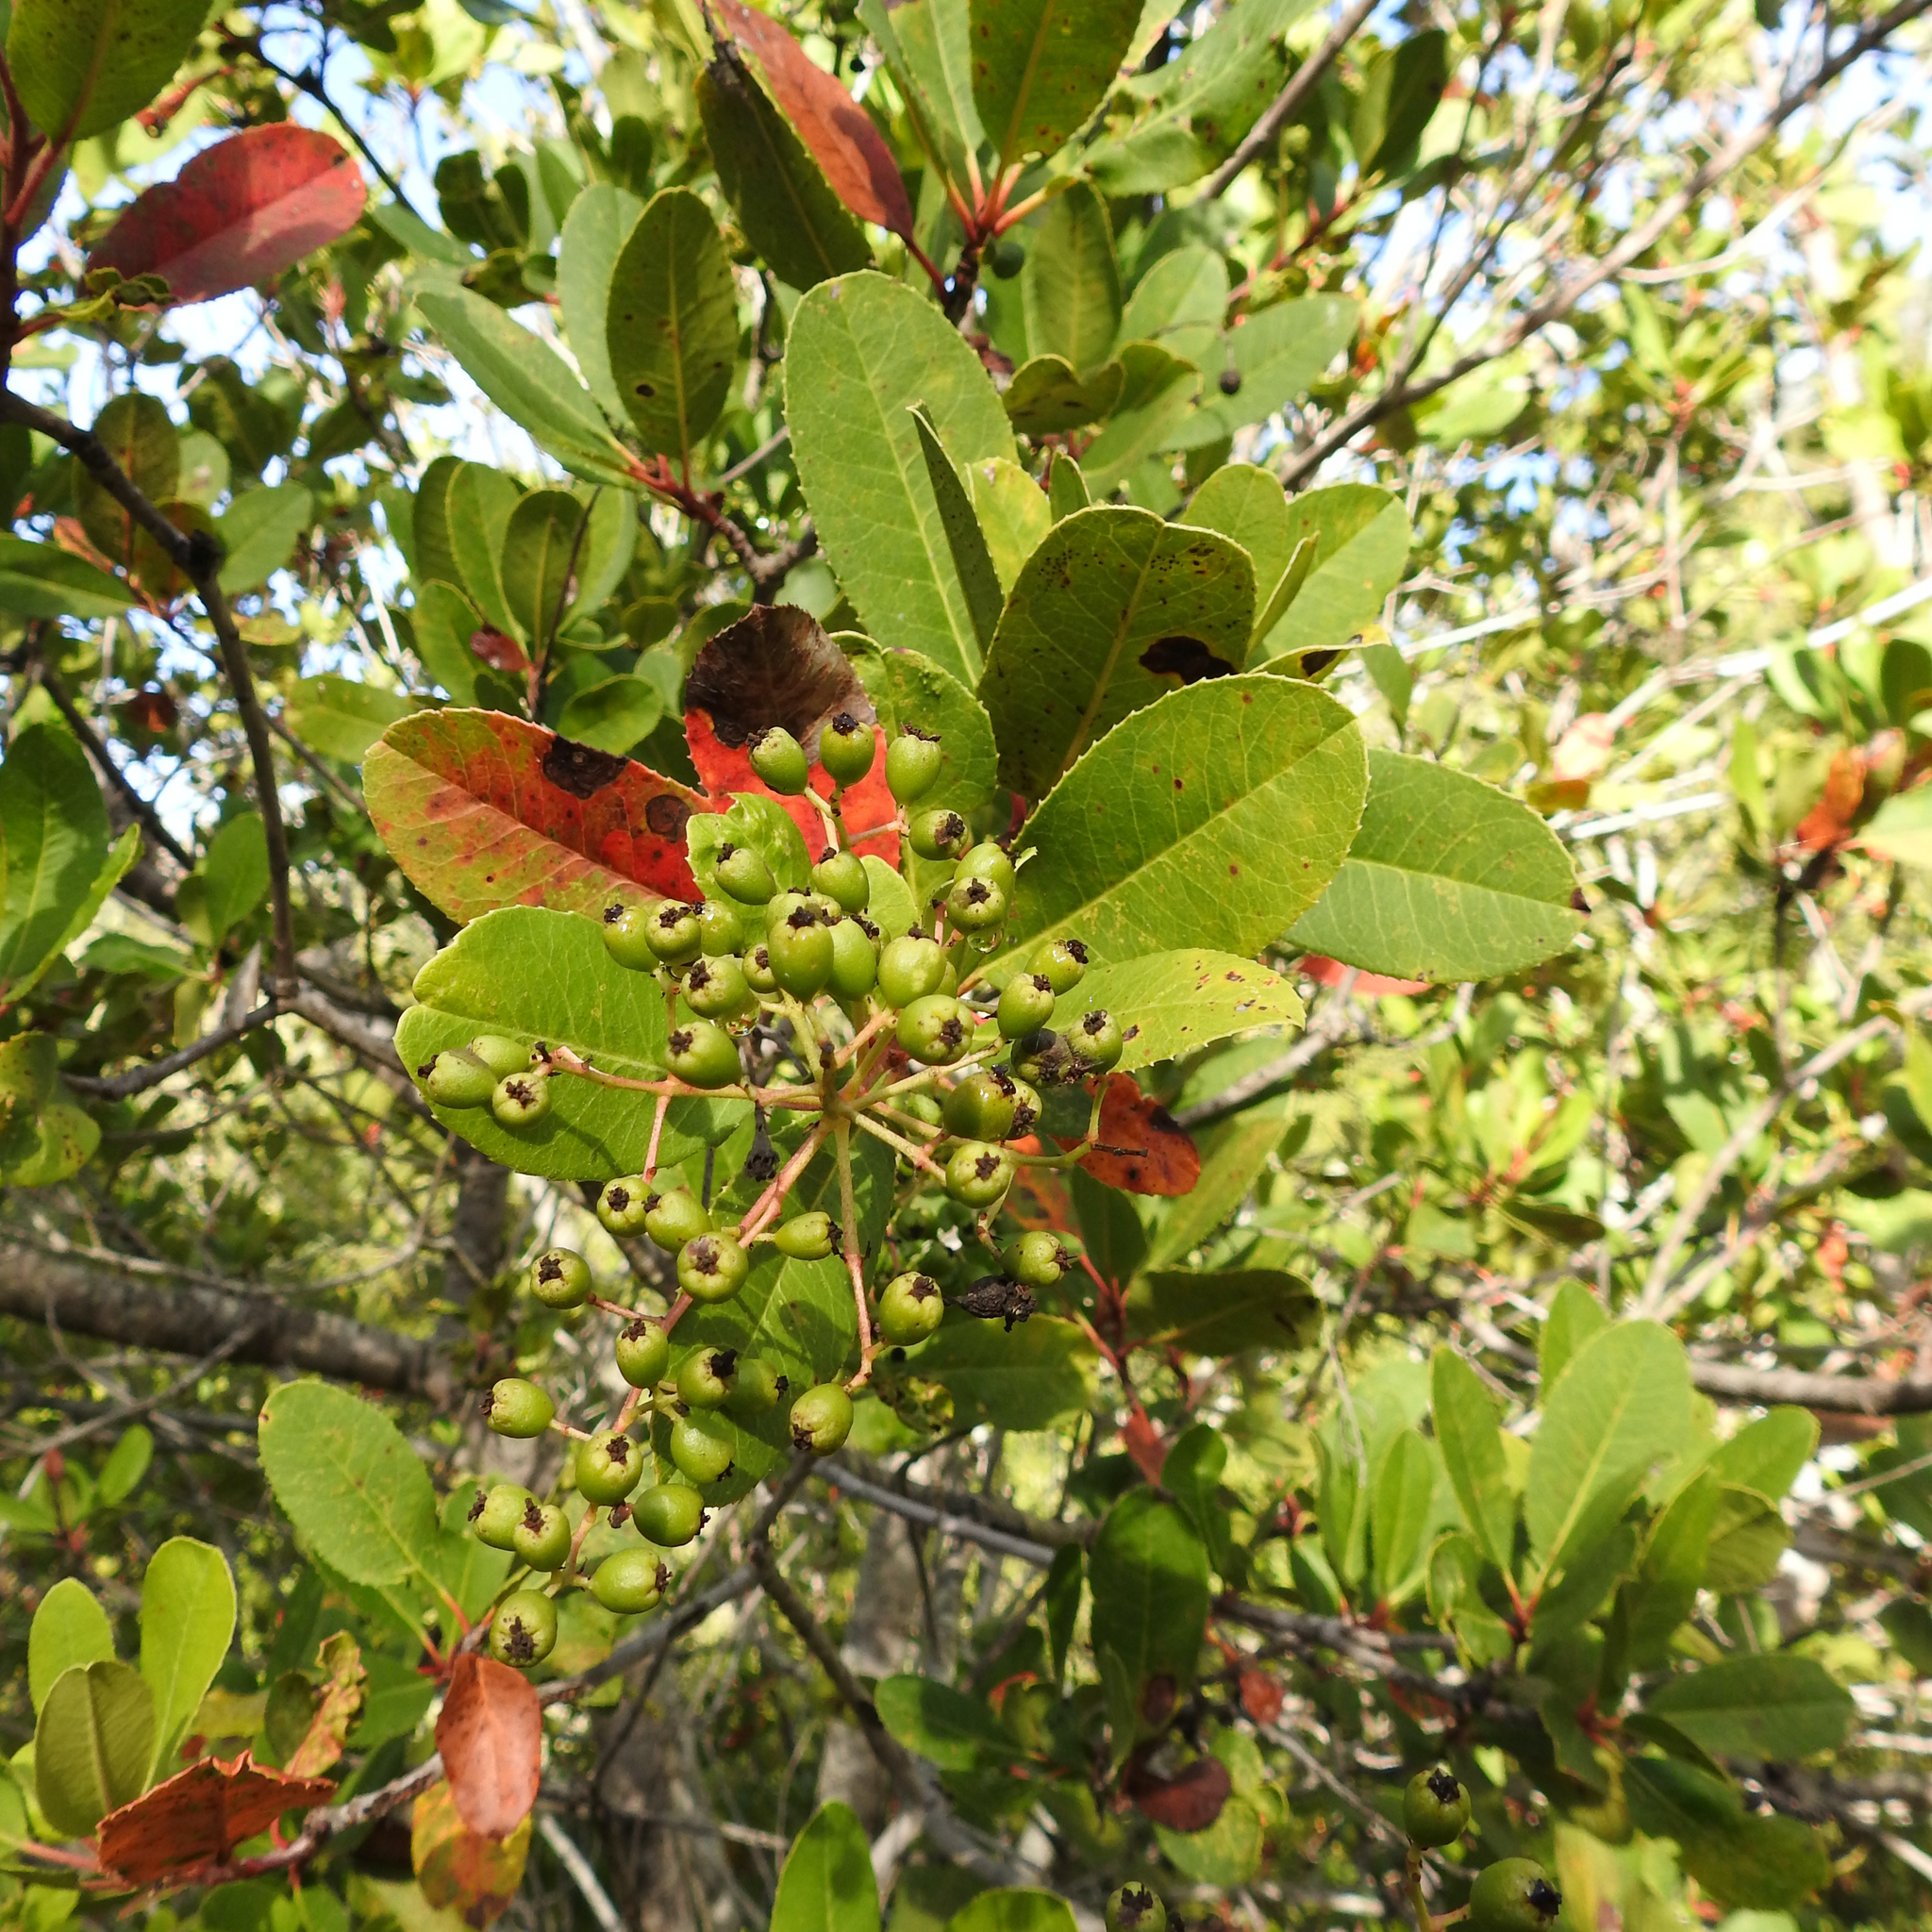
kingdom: Plantae
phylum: Tracheophyta
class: Magnoliopsida
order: Rosales
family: Rosaceae
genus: Heteromeles
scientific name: Heteromeles arbutifolia
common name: California-holly
